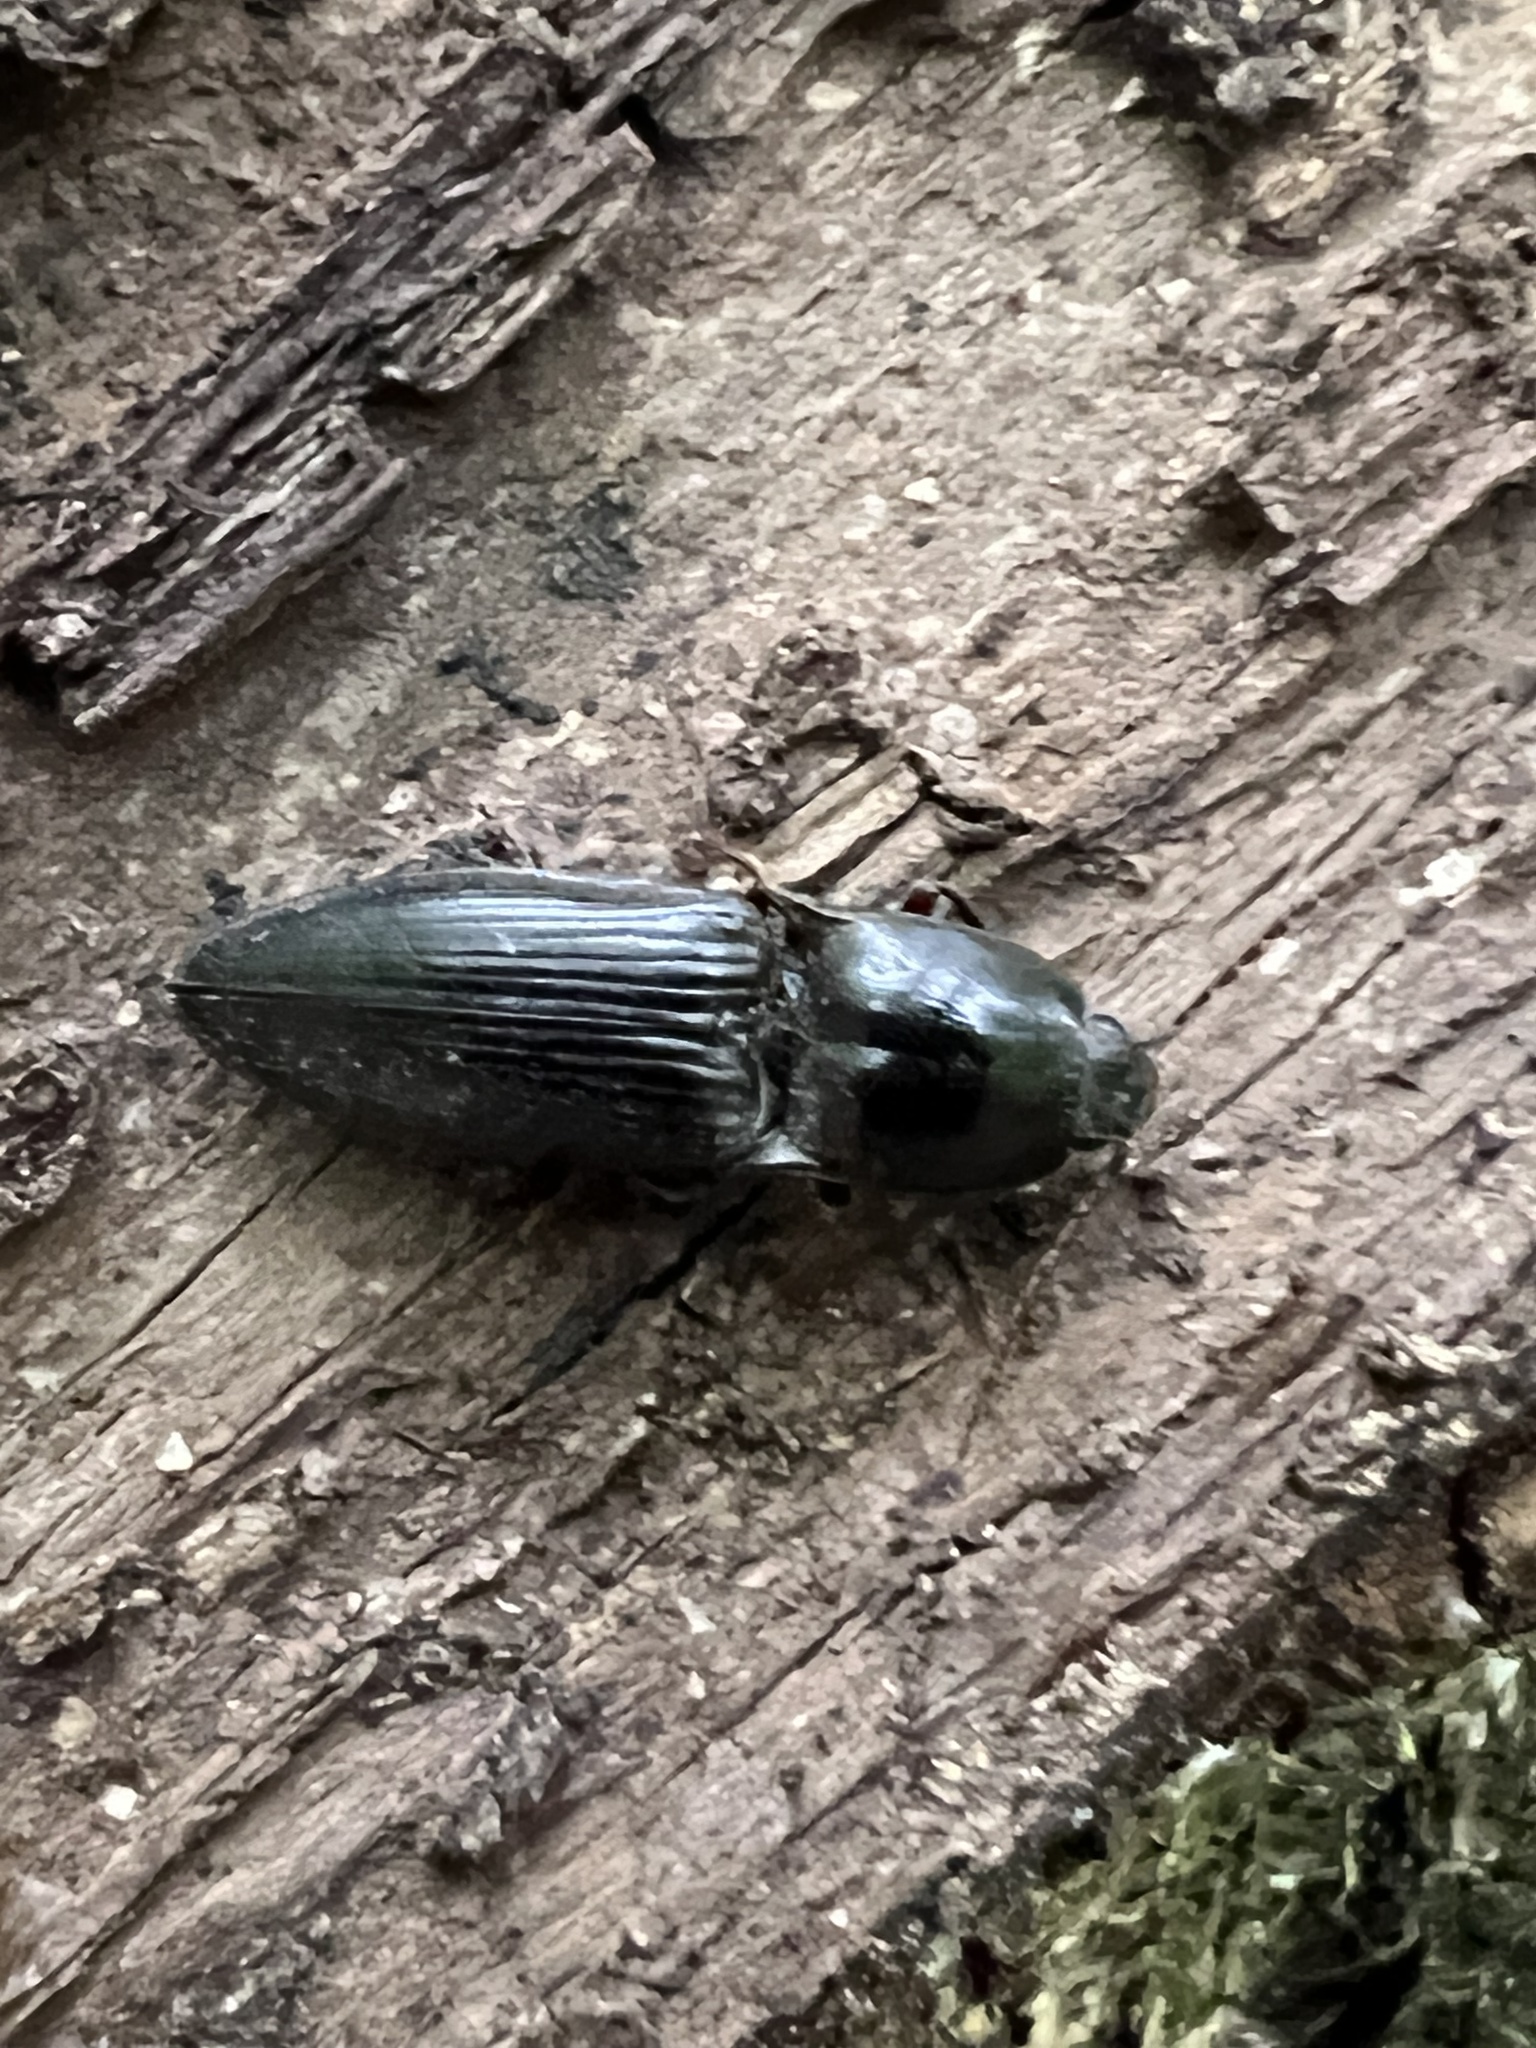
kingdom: Animalia
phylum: Arthropoda
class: Insecta
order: Coleoptera
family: Elateridae
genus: Neopristilophus
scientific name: Neopristilophus
